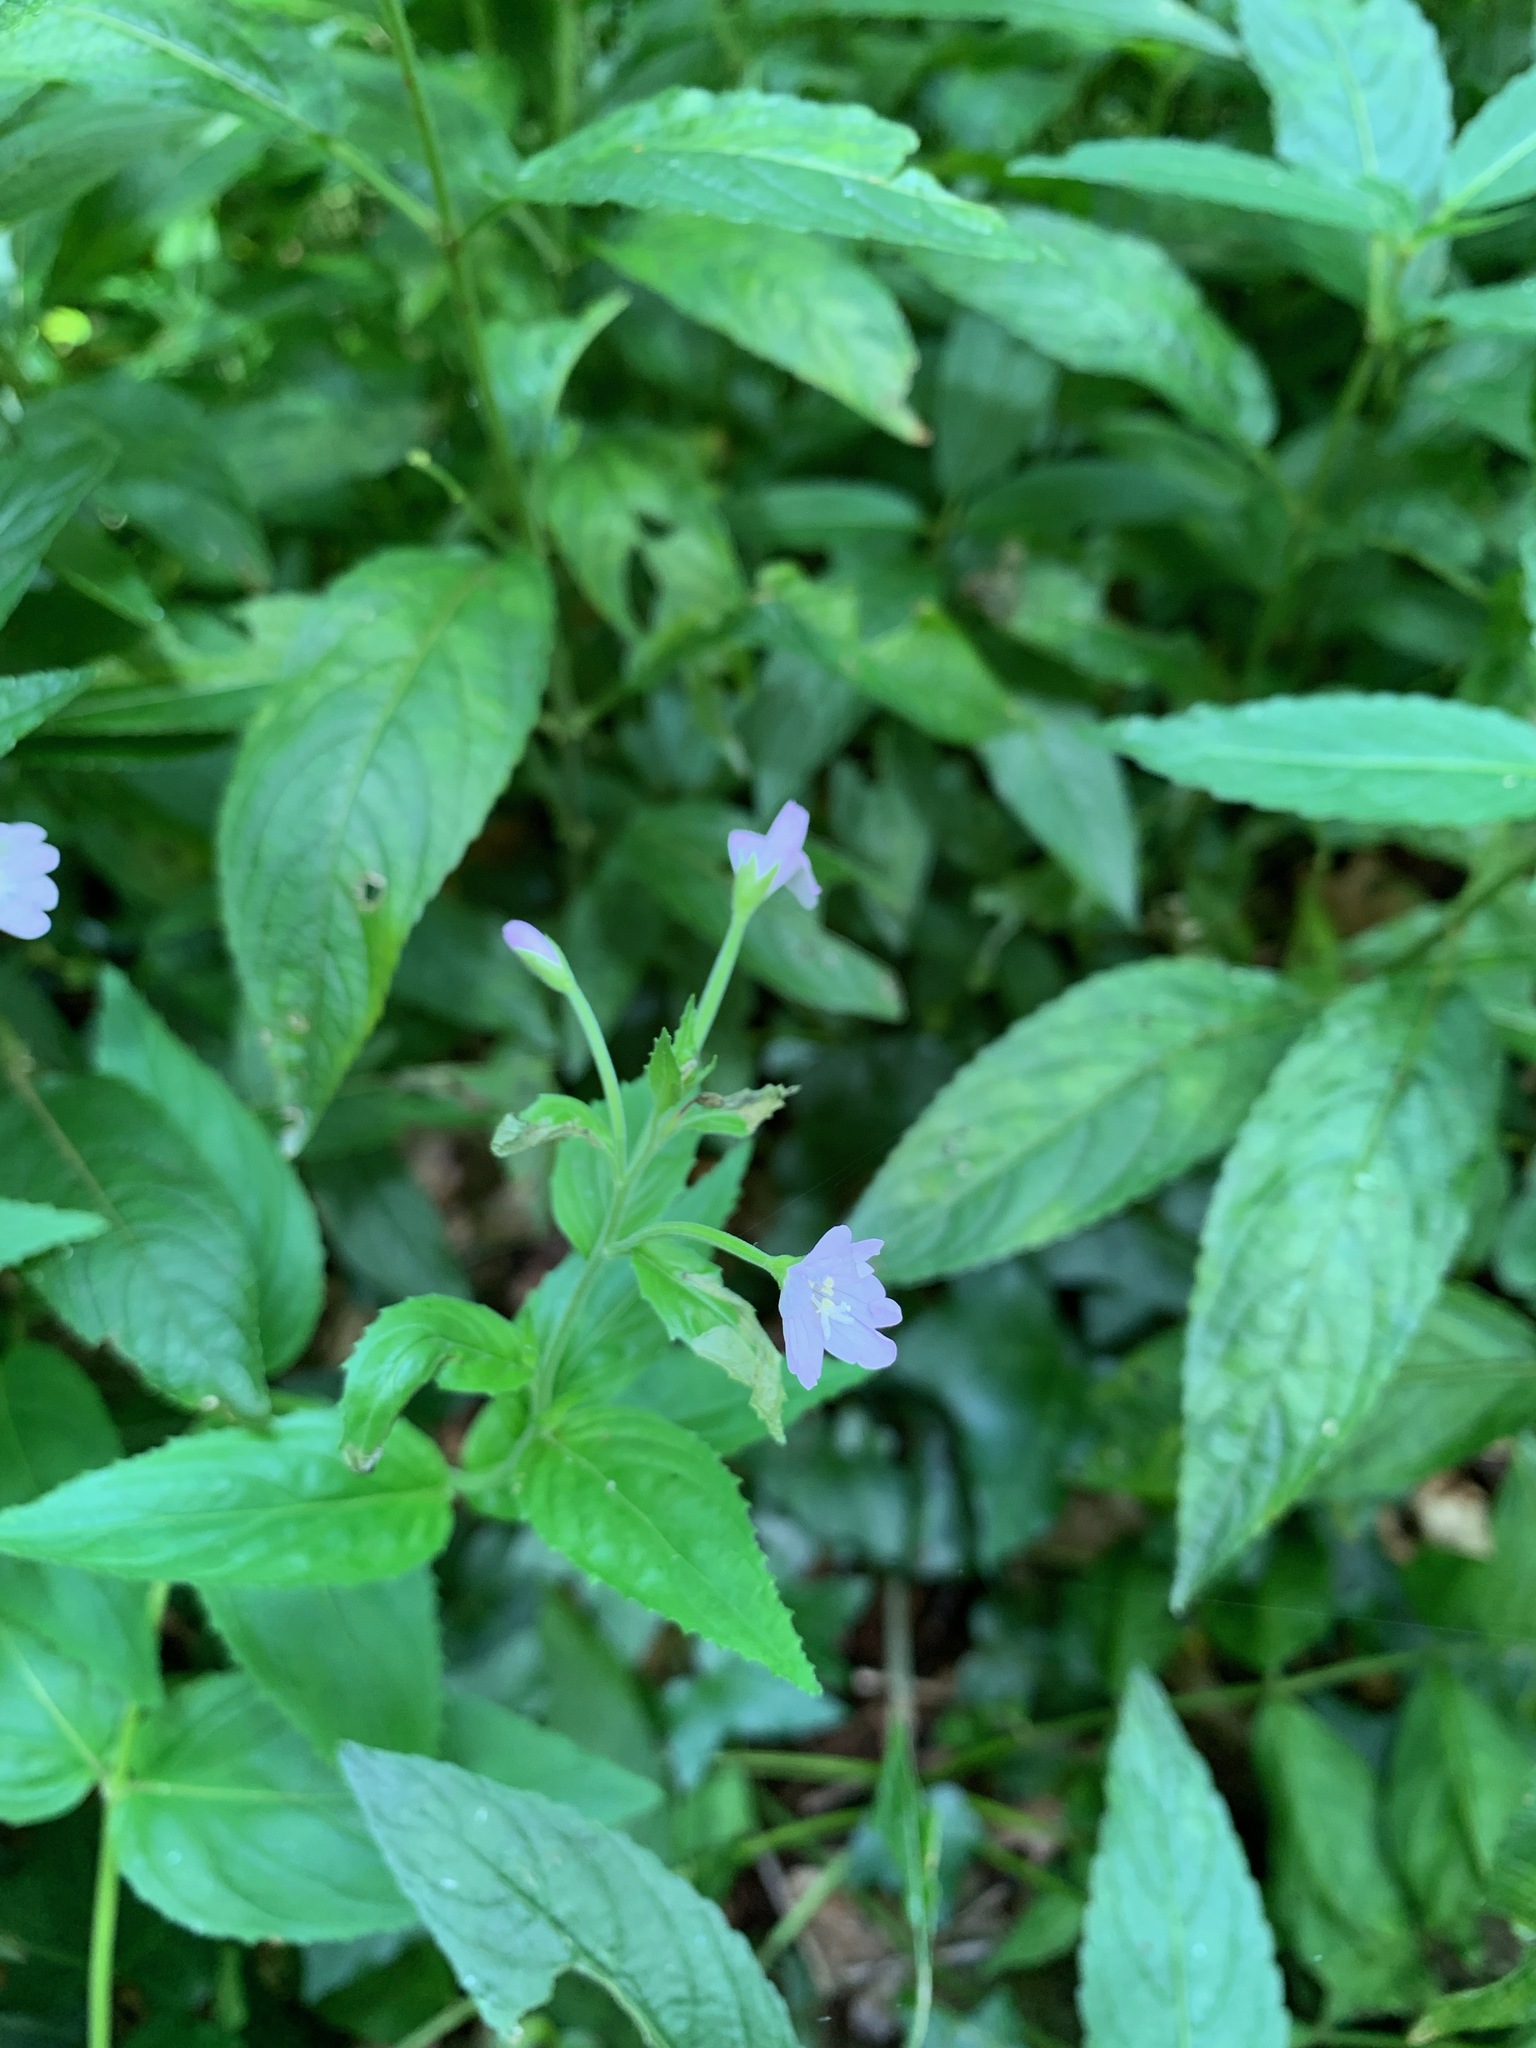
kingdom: Plantae
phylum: Tracheophyta
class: Magnoliopsida
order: Myrtales
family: Onagraceae
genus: Epilobium
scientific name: Epilobium montanum
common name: Broad-leaved willowherb
